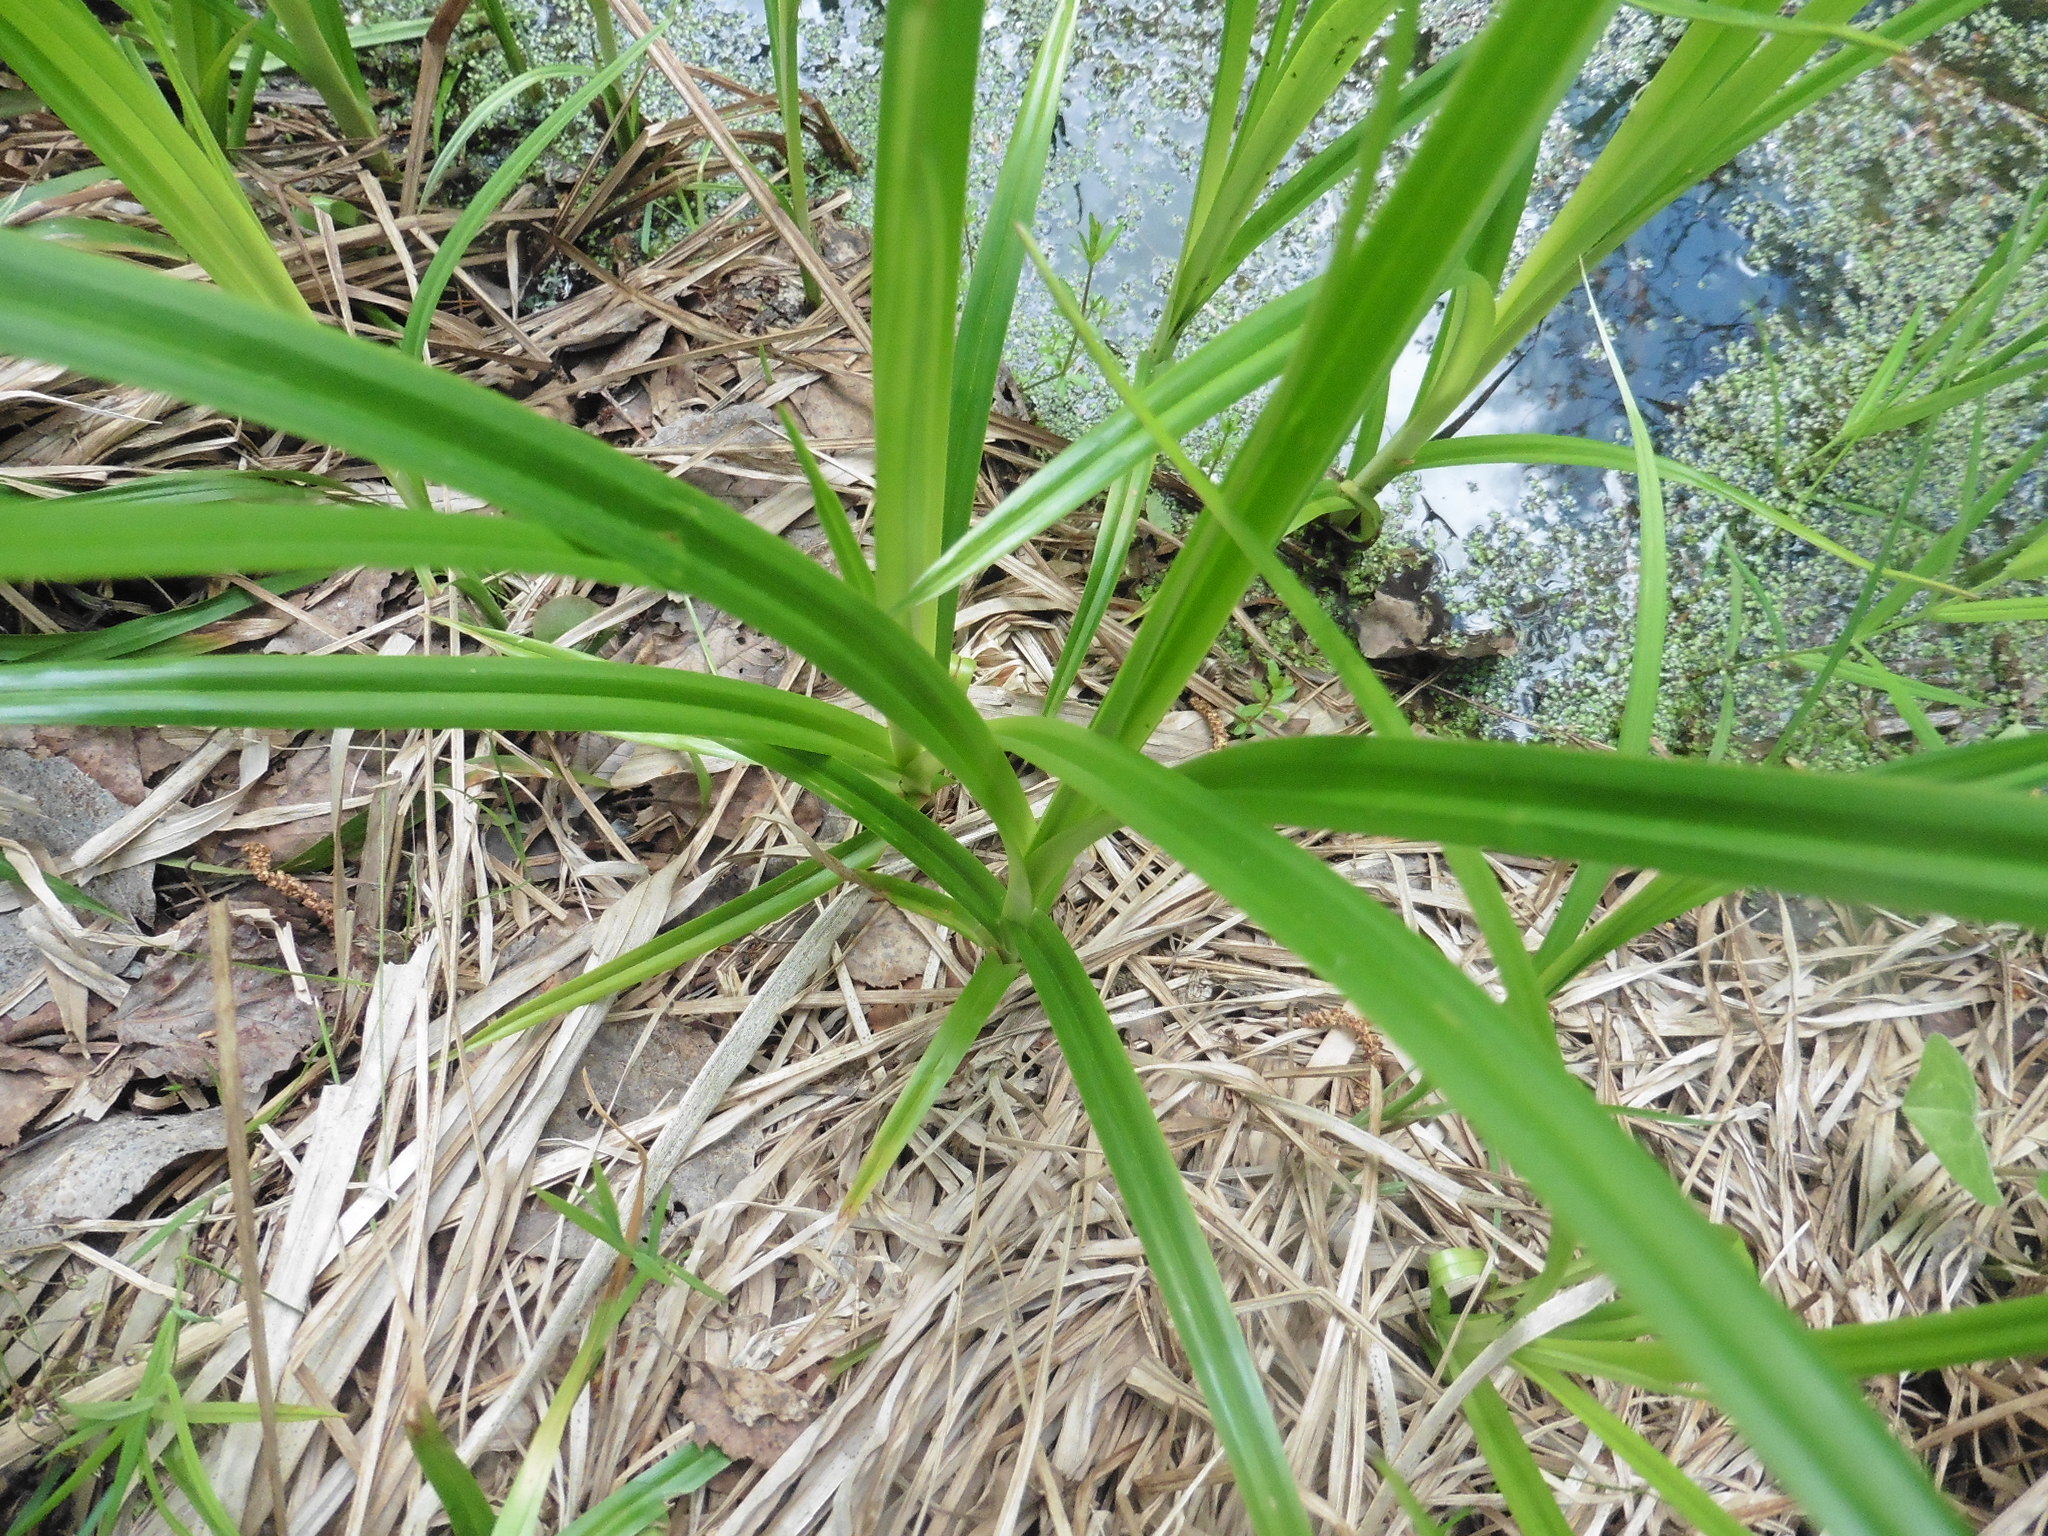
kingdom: Plantae
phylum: Tracheophyta
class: Liliopsida
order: Poales
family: Cyperaceae
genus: Scirpus
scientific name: Scirpus sylvaticus
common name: Wood club-rush
